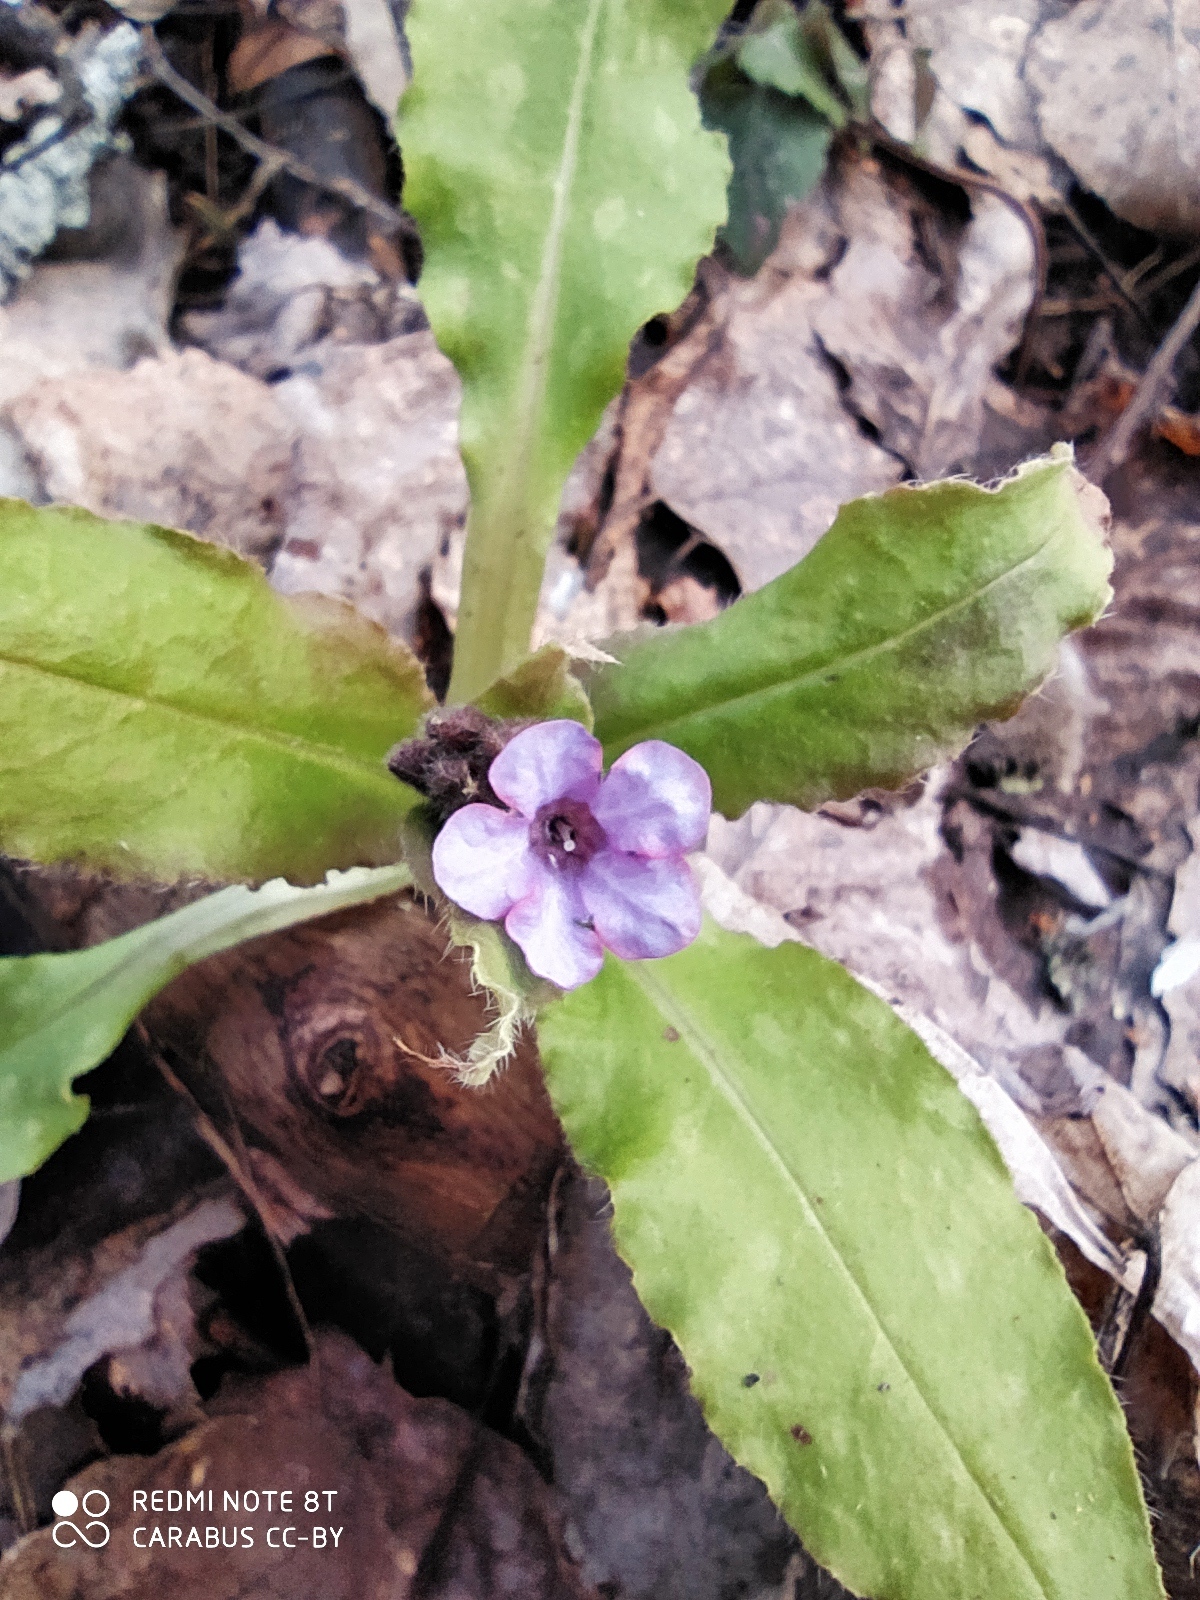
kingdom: Plantae
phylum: Tracheophyta
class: Magnoliopsida
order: Boraginales
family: Boraginaceae
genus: Pulmonaria
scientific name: Pulmonaria obscura
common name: Suffolk lungwort
